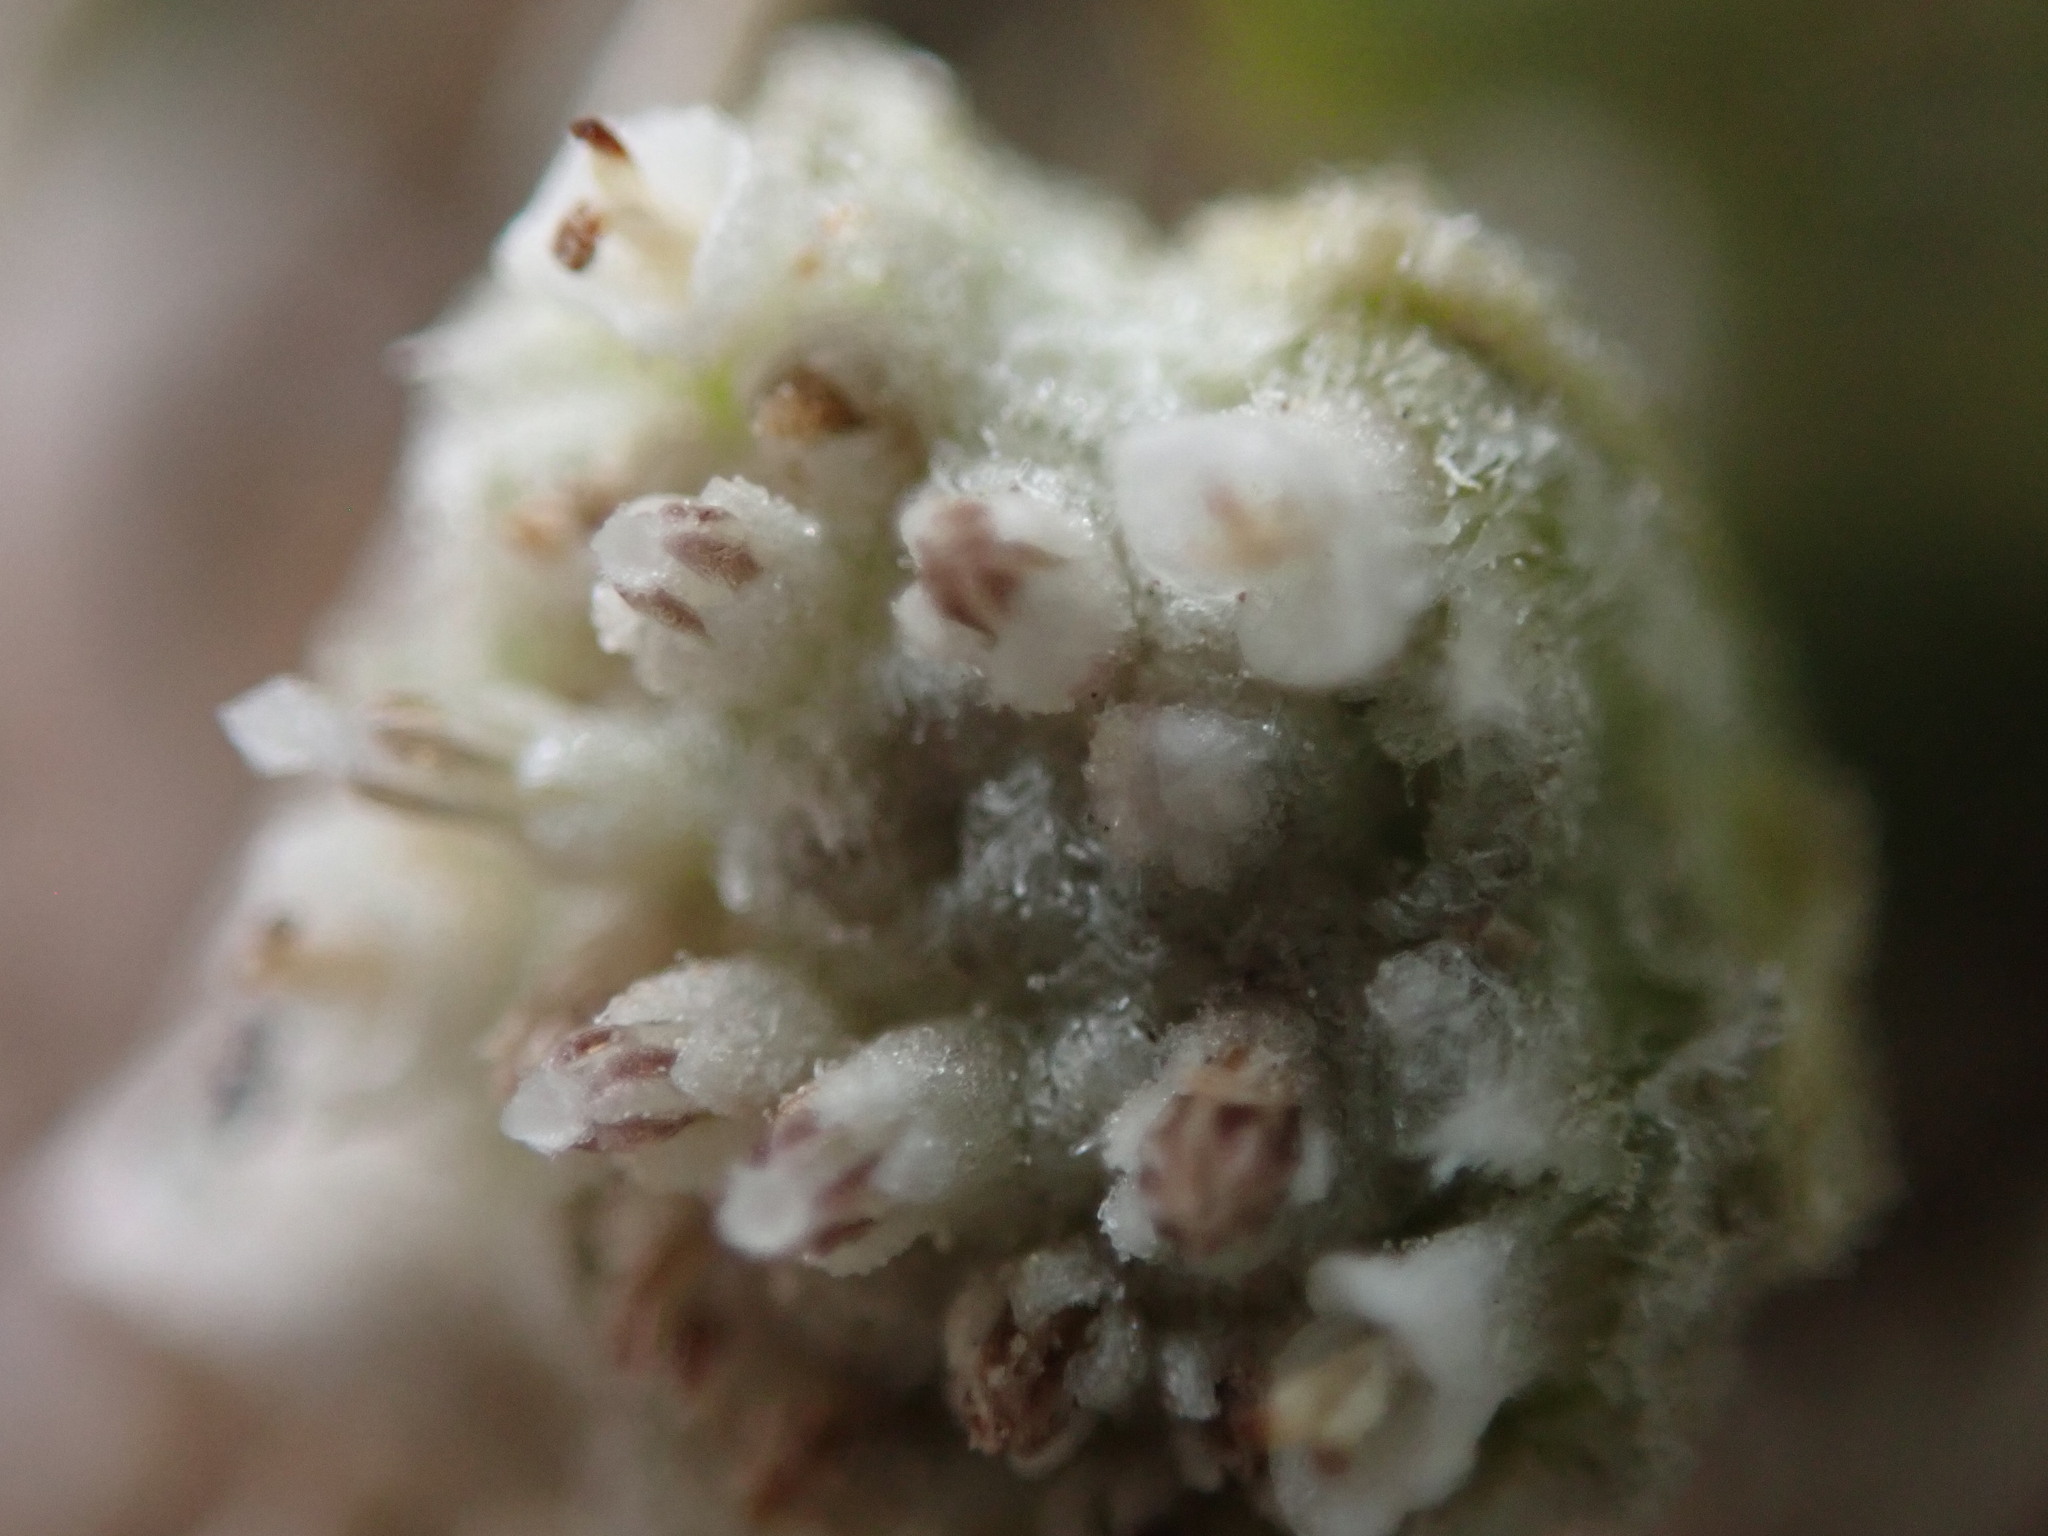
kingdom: Plantae
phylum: Tracheophyta
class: Magnoliopsida
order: Asterales
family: Asteraceae
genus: Parthenium
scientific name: Parthenium tetraneuris
